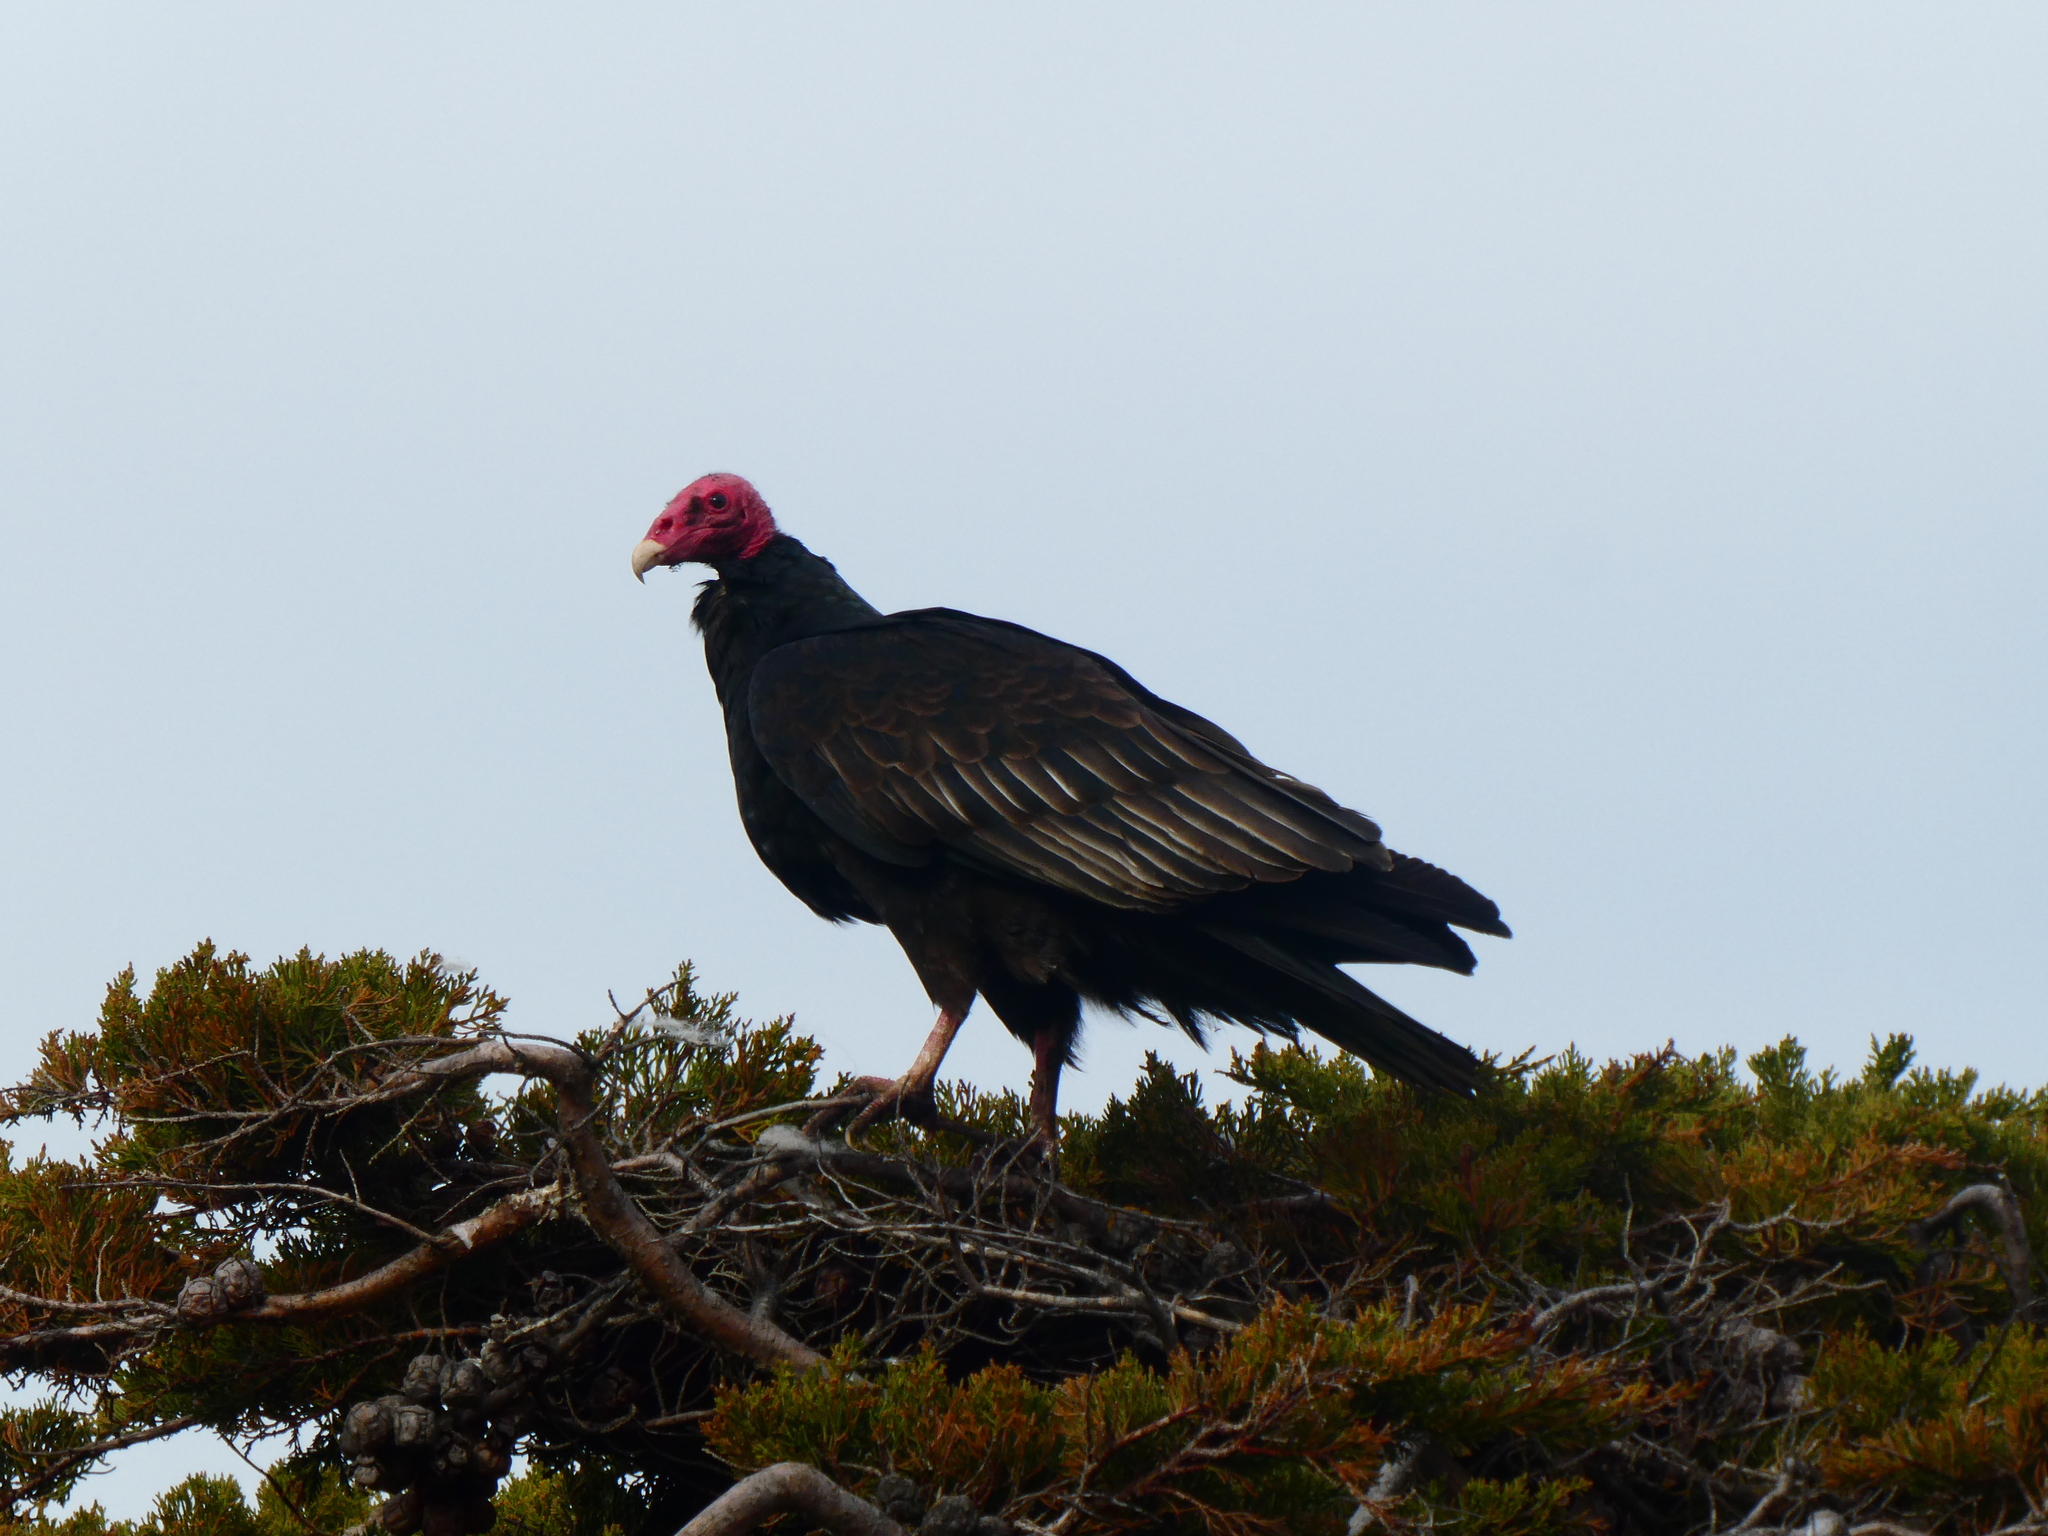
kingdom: Animalia
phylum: Chordata
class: Aves
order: Accipitriformes
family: Cathartidae
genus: Cathartes
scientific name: Cathartes aura
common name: Turkey vulture
